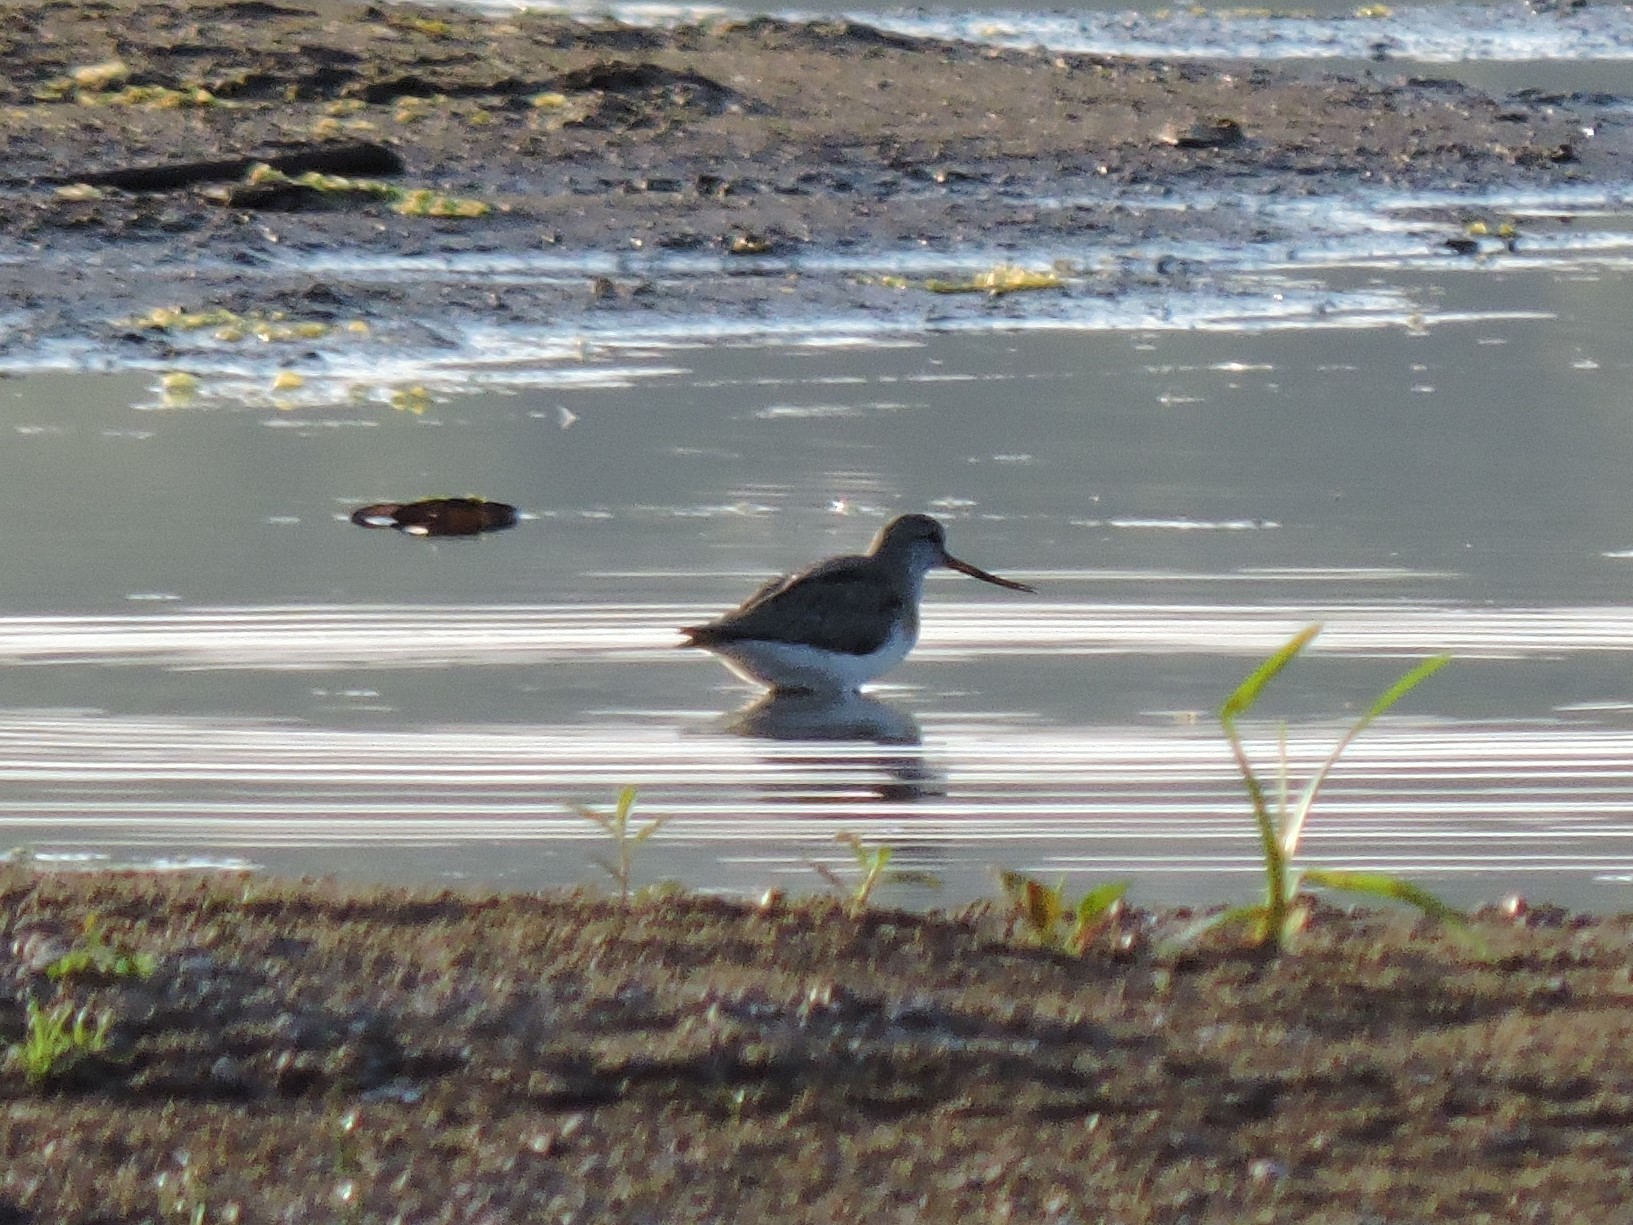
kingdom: Animalia
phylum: Chordata
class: Aves
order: Charadriiformes
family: Scolopacidae
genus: Xenus
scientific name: Xenus cinereus
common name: Terek sandpiper
